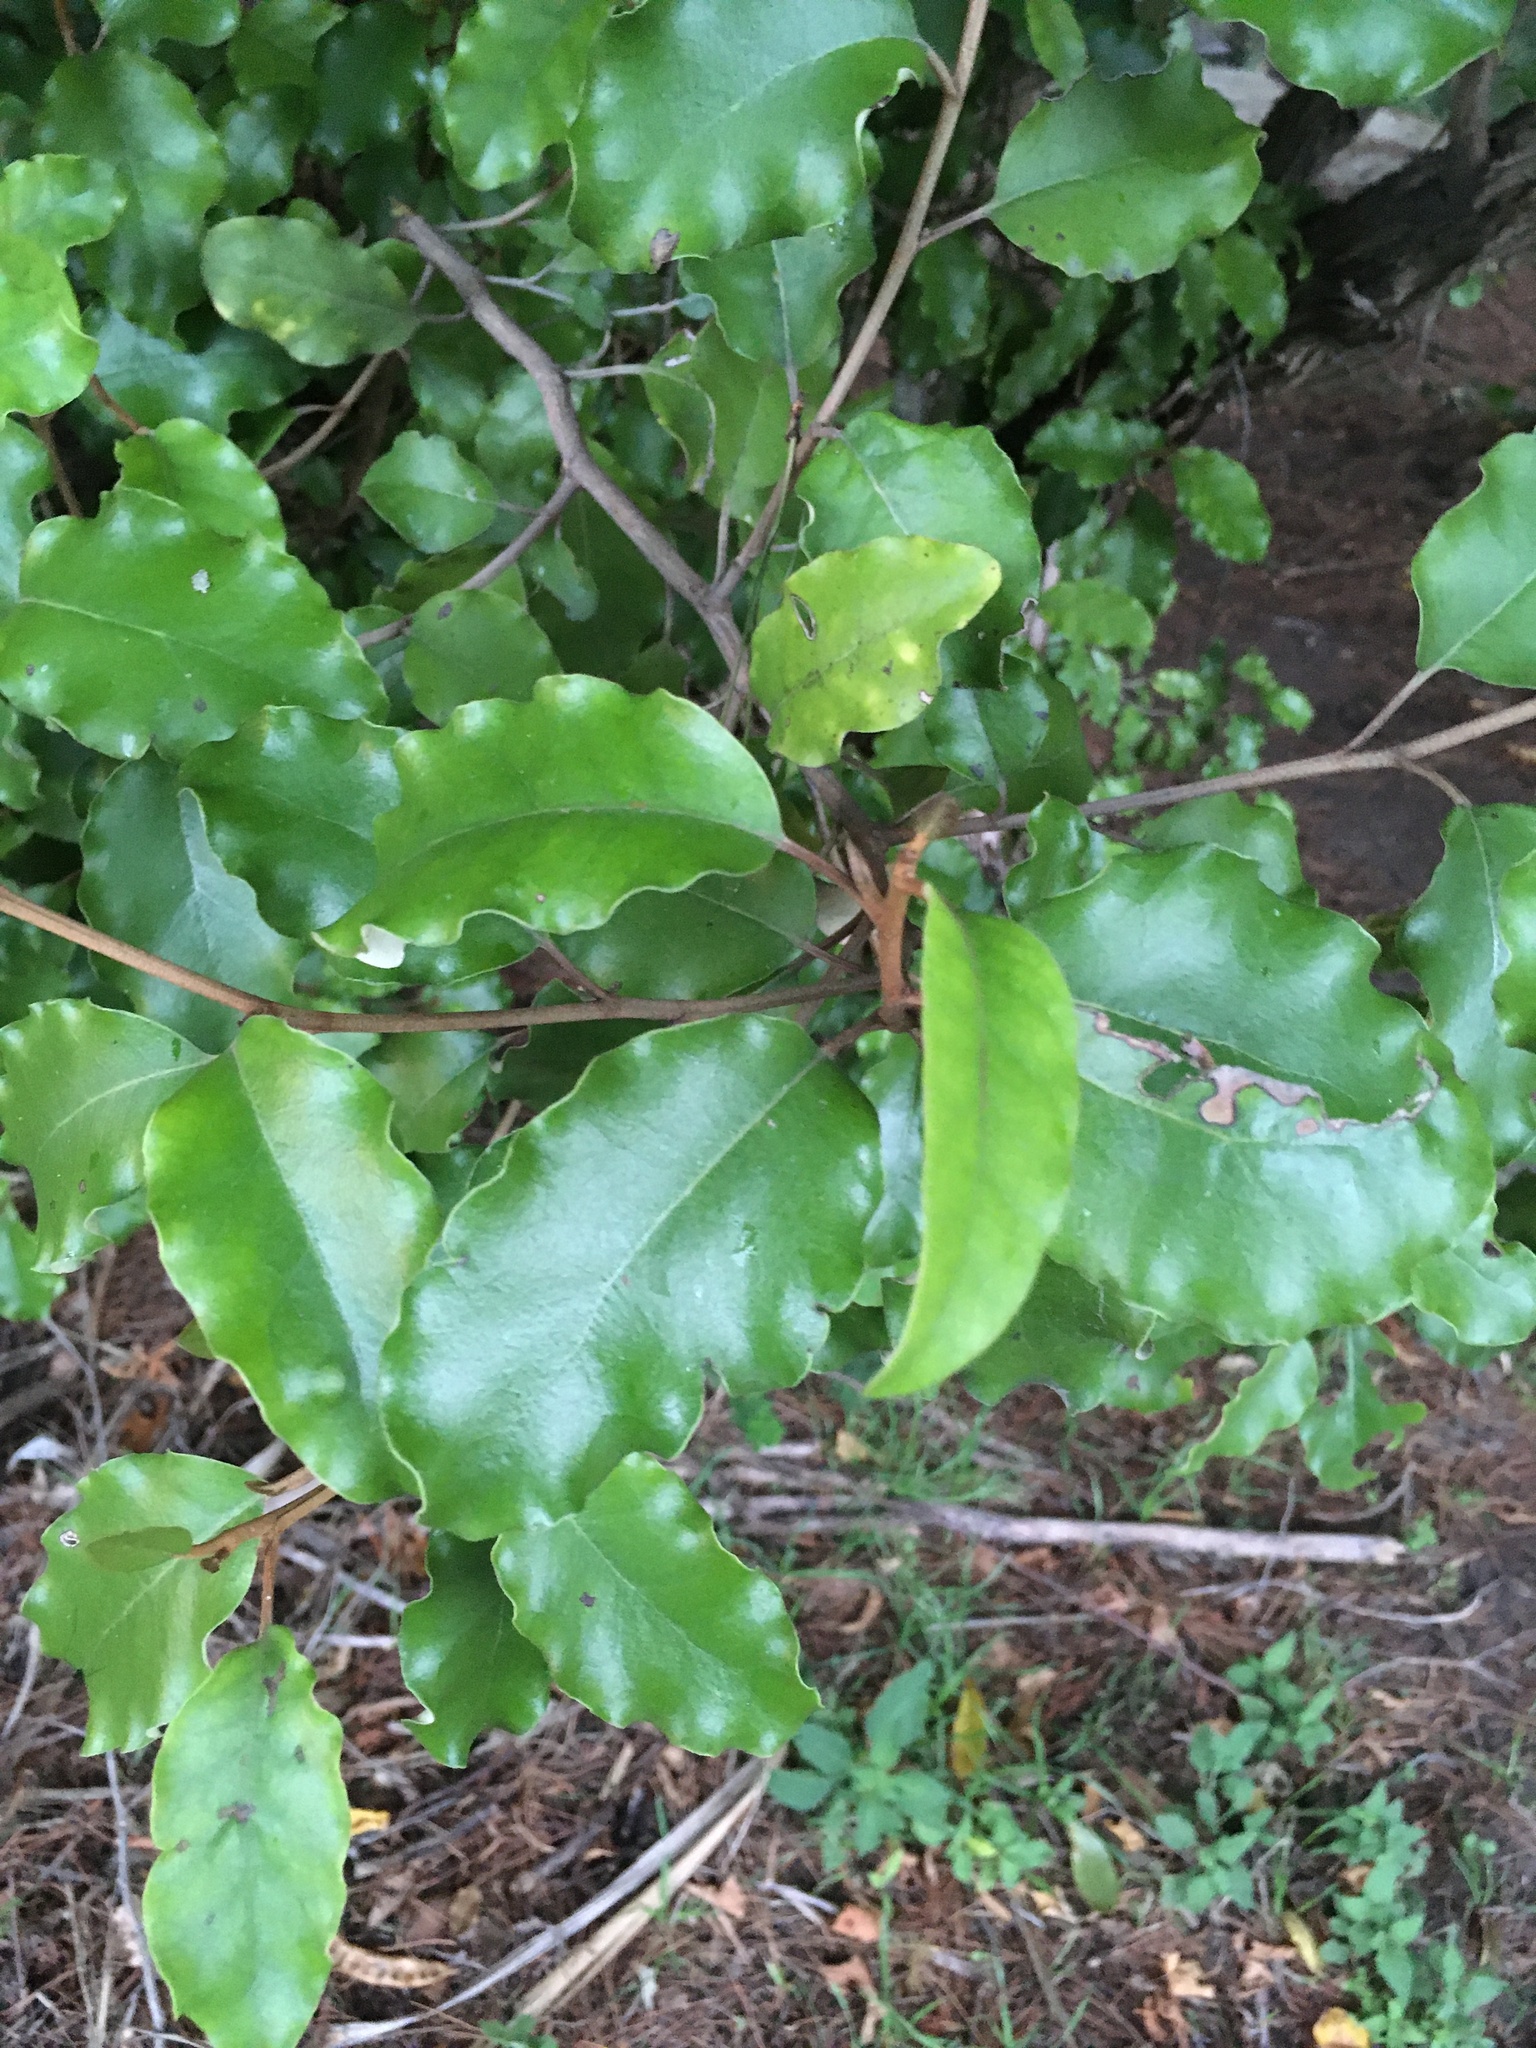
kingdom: Plantae
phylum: Tracheophyta
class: Magnoliopsida
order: Asterales
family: Asteraceae
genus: Olearia
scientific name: Olearia paniculata
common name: Akiraho
